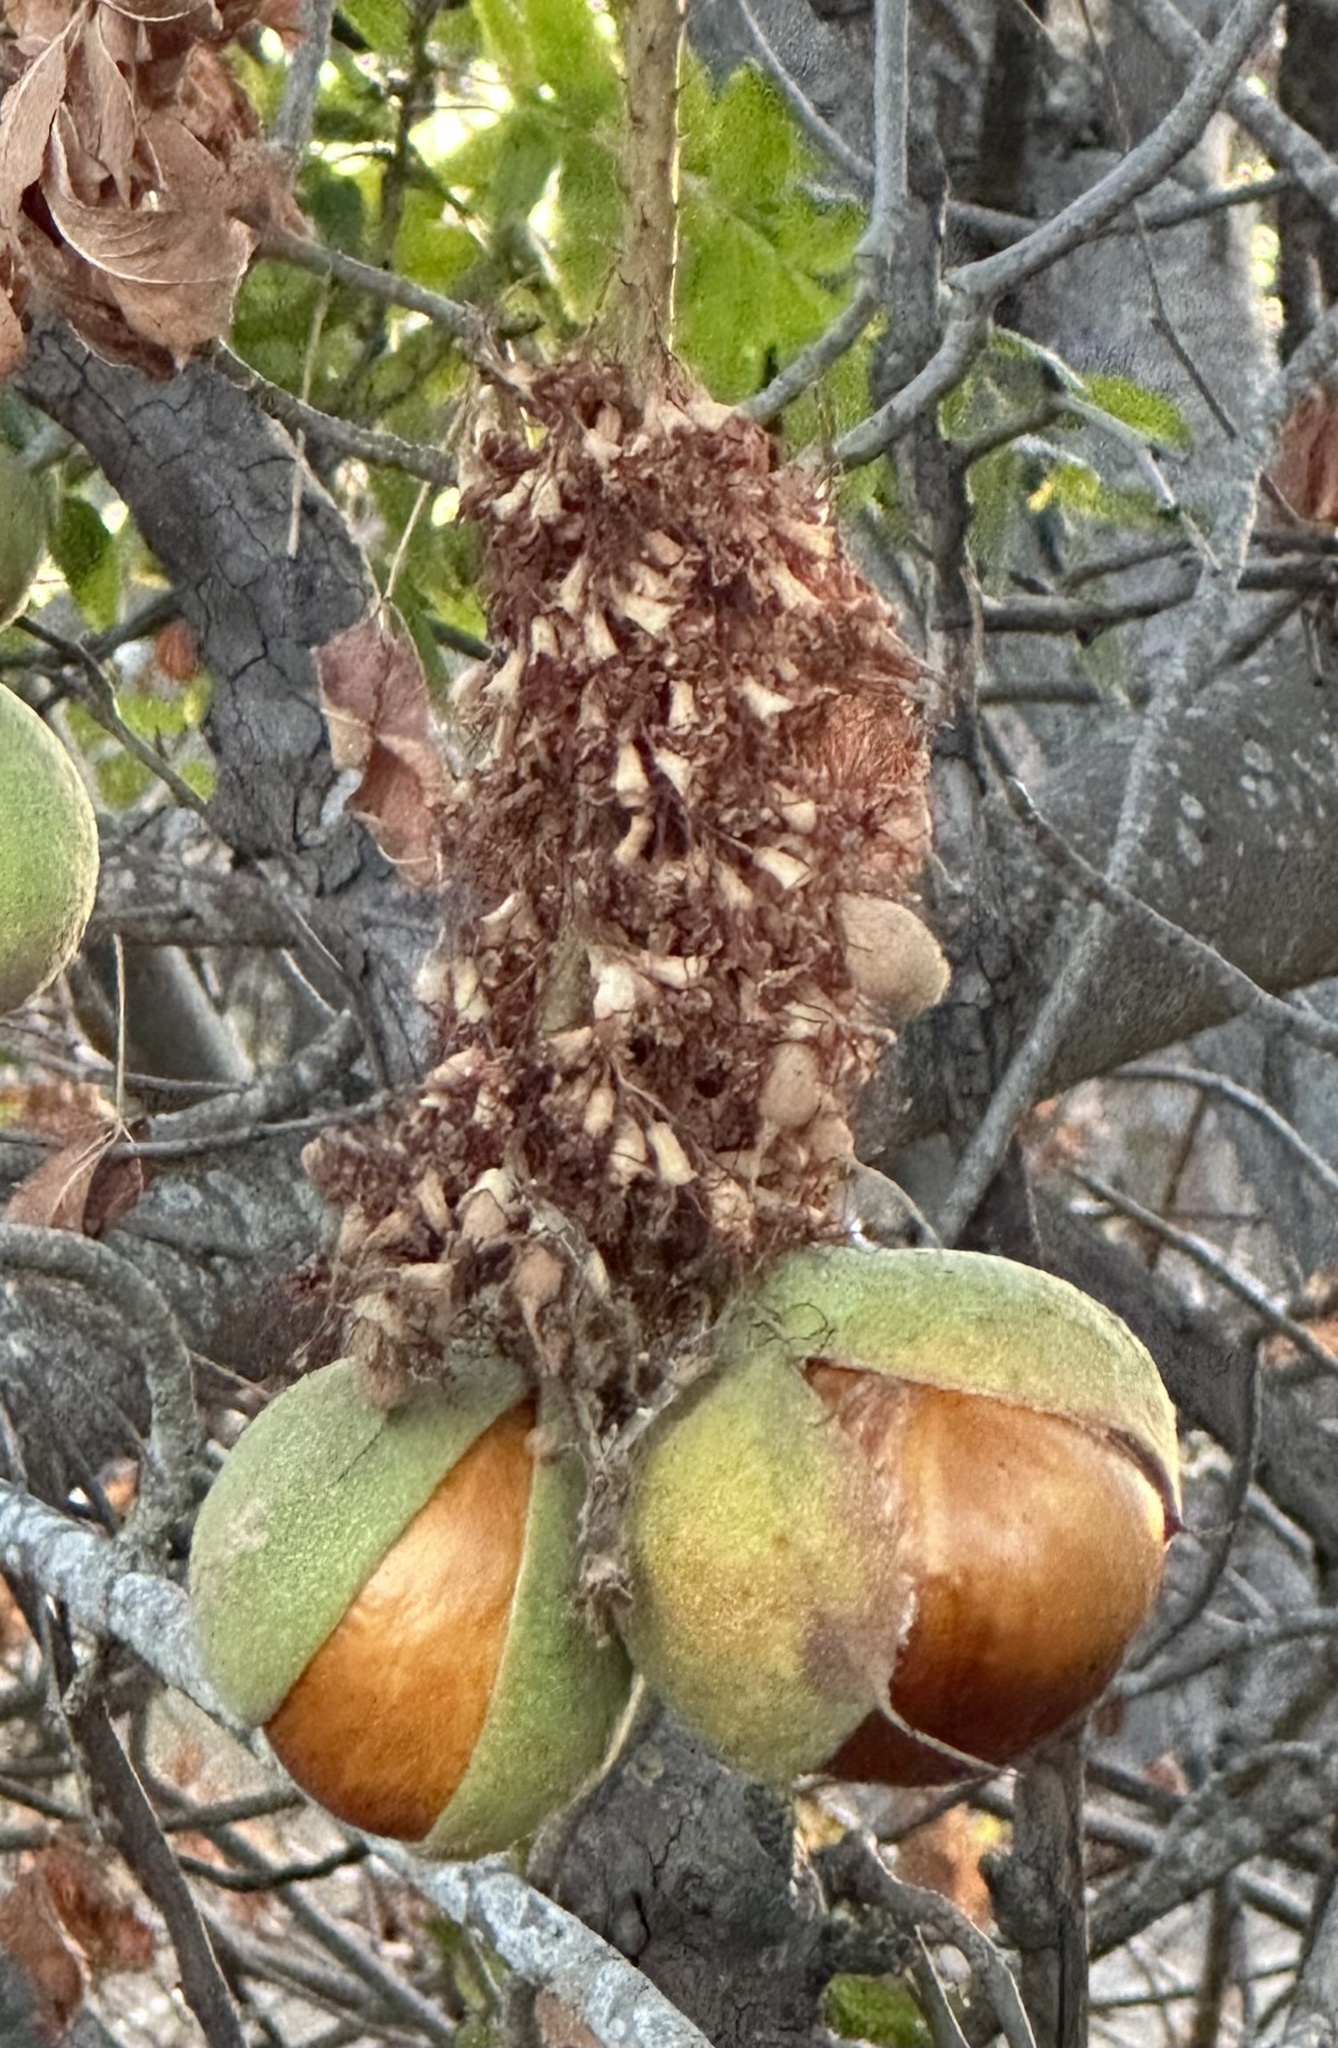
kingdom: Plantae
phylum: Tracheophyta
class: Magnoliopsida
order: Sapindales
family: Sapindaceae
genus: Aesculus
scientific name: Aesculus californica
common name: California buckeye
